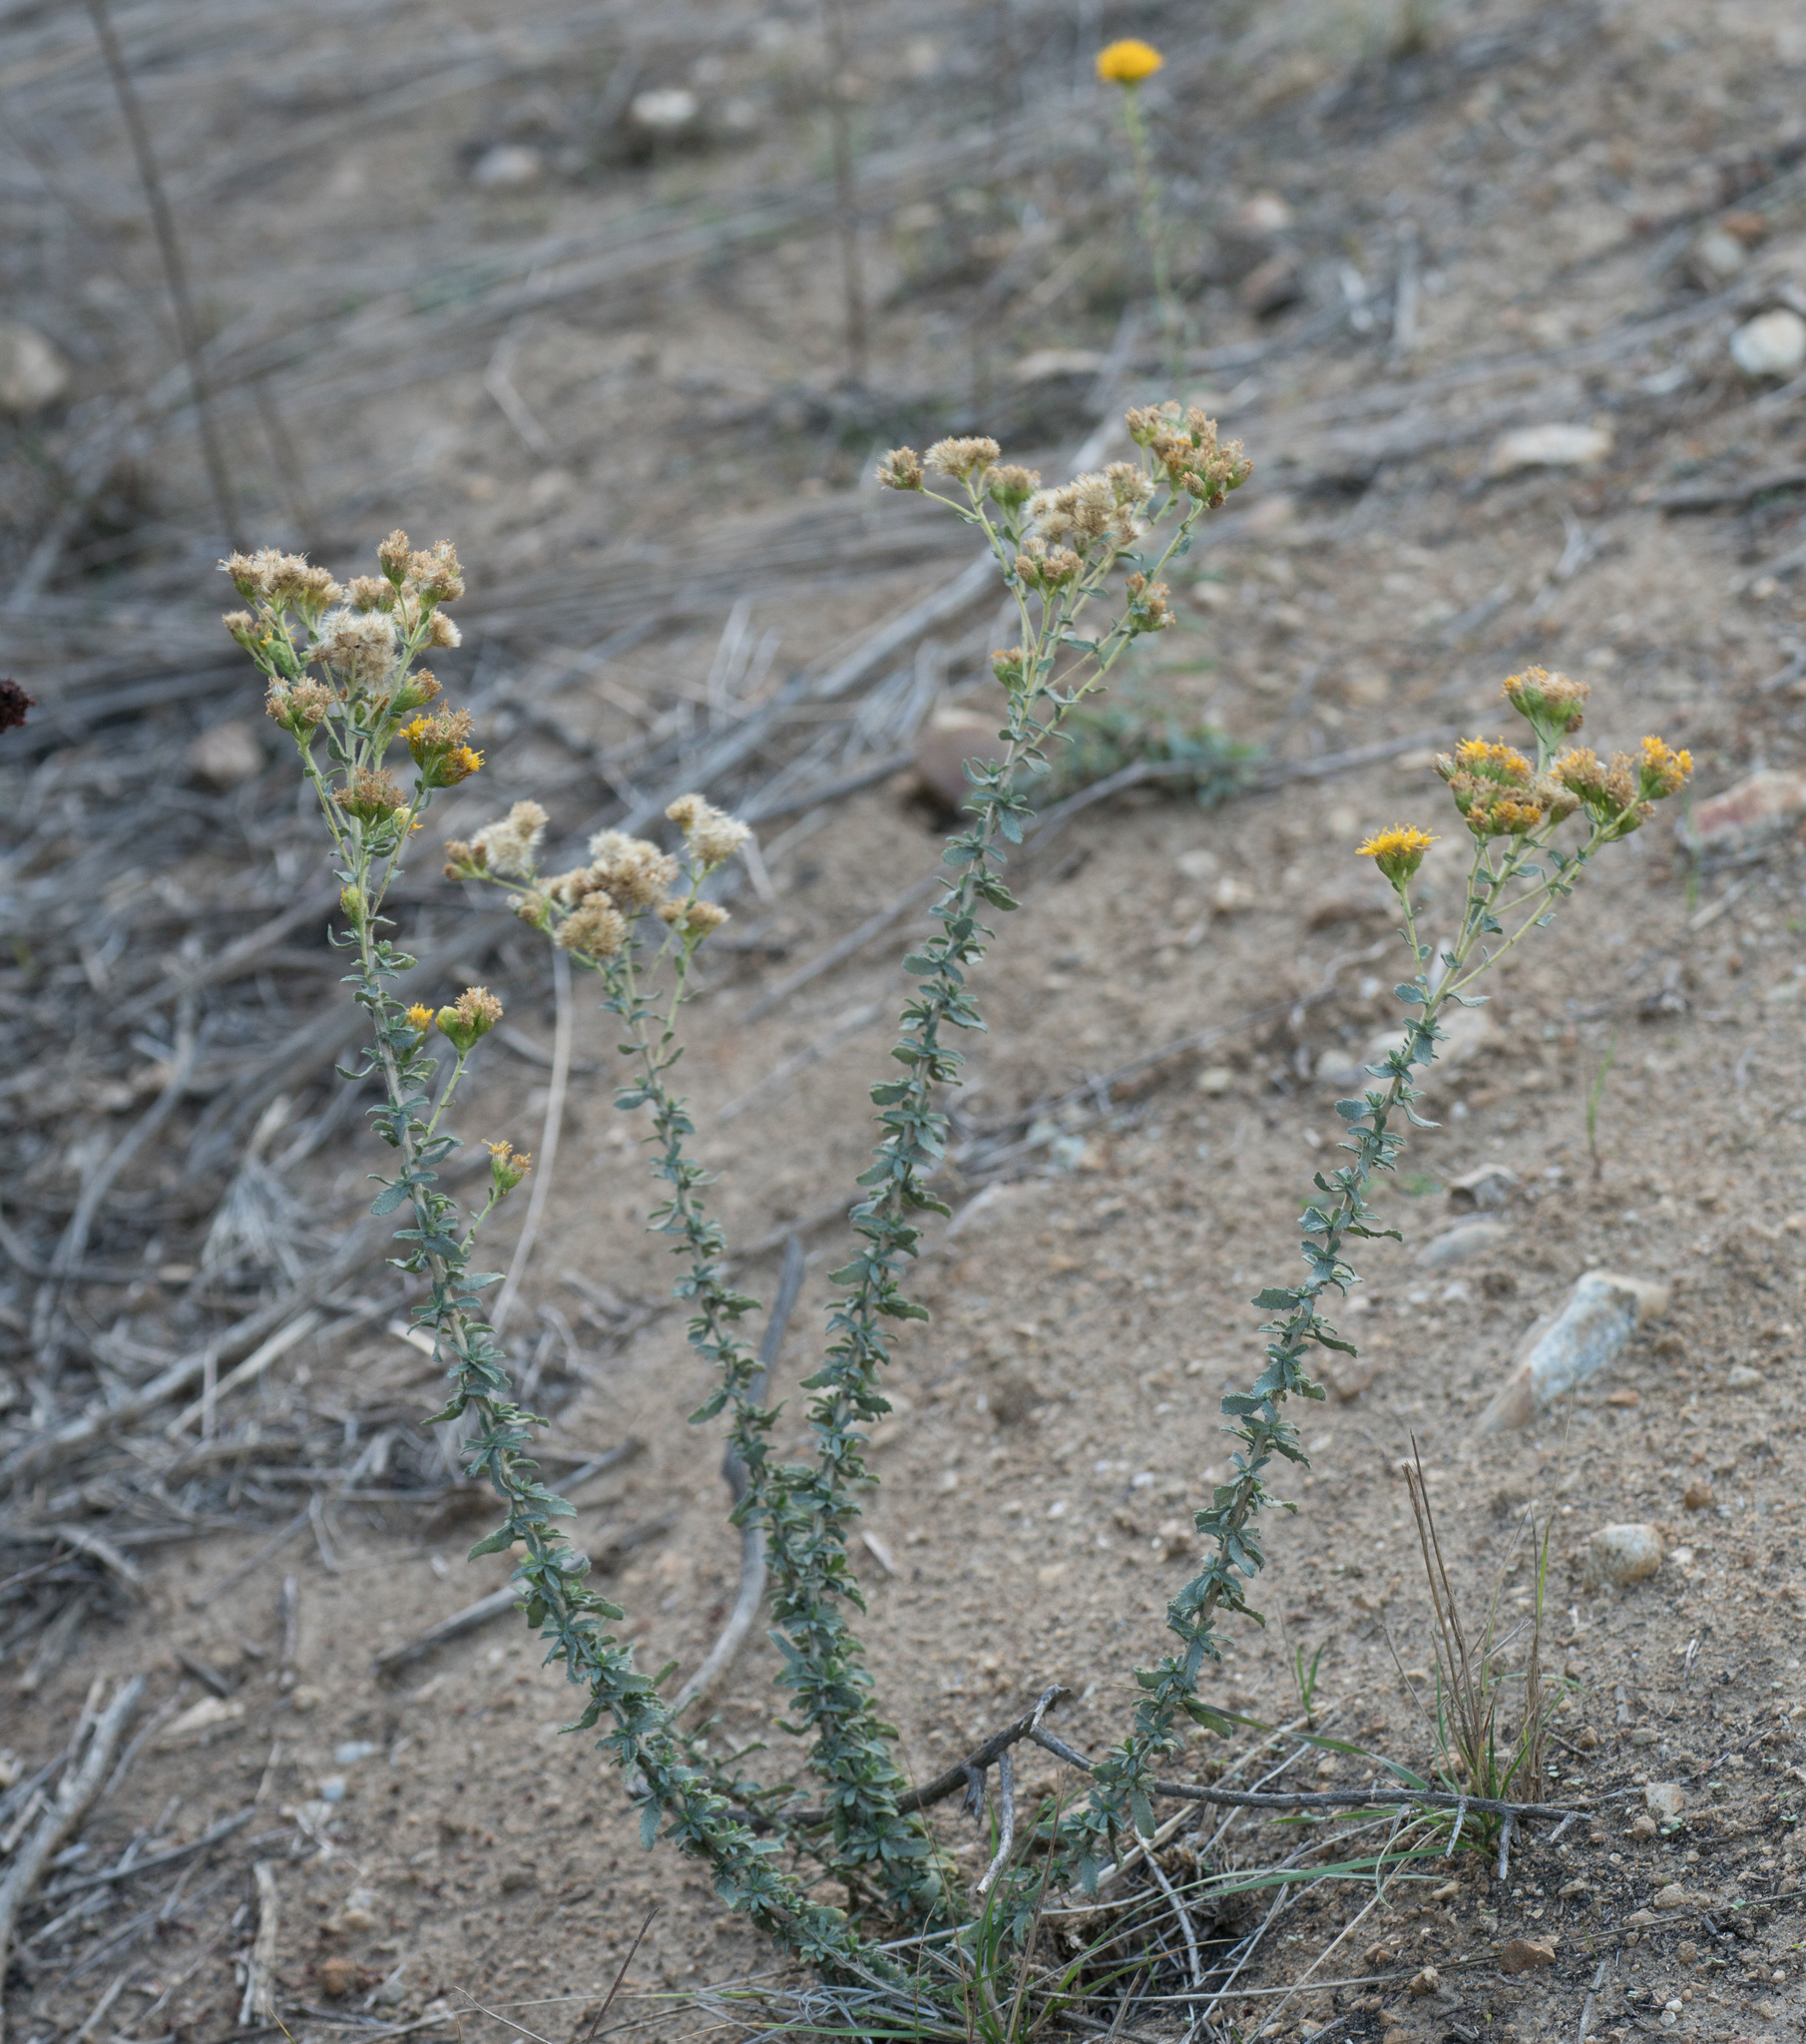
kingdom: Plantae
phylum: Tracheophyta
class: Magnoliopsida
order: Asterales
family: Asteraceae
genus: Isocoma
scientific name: Isocoma menziesii
